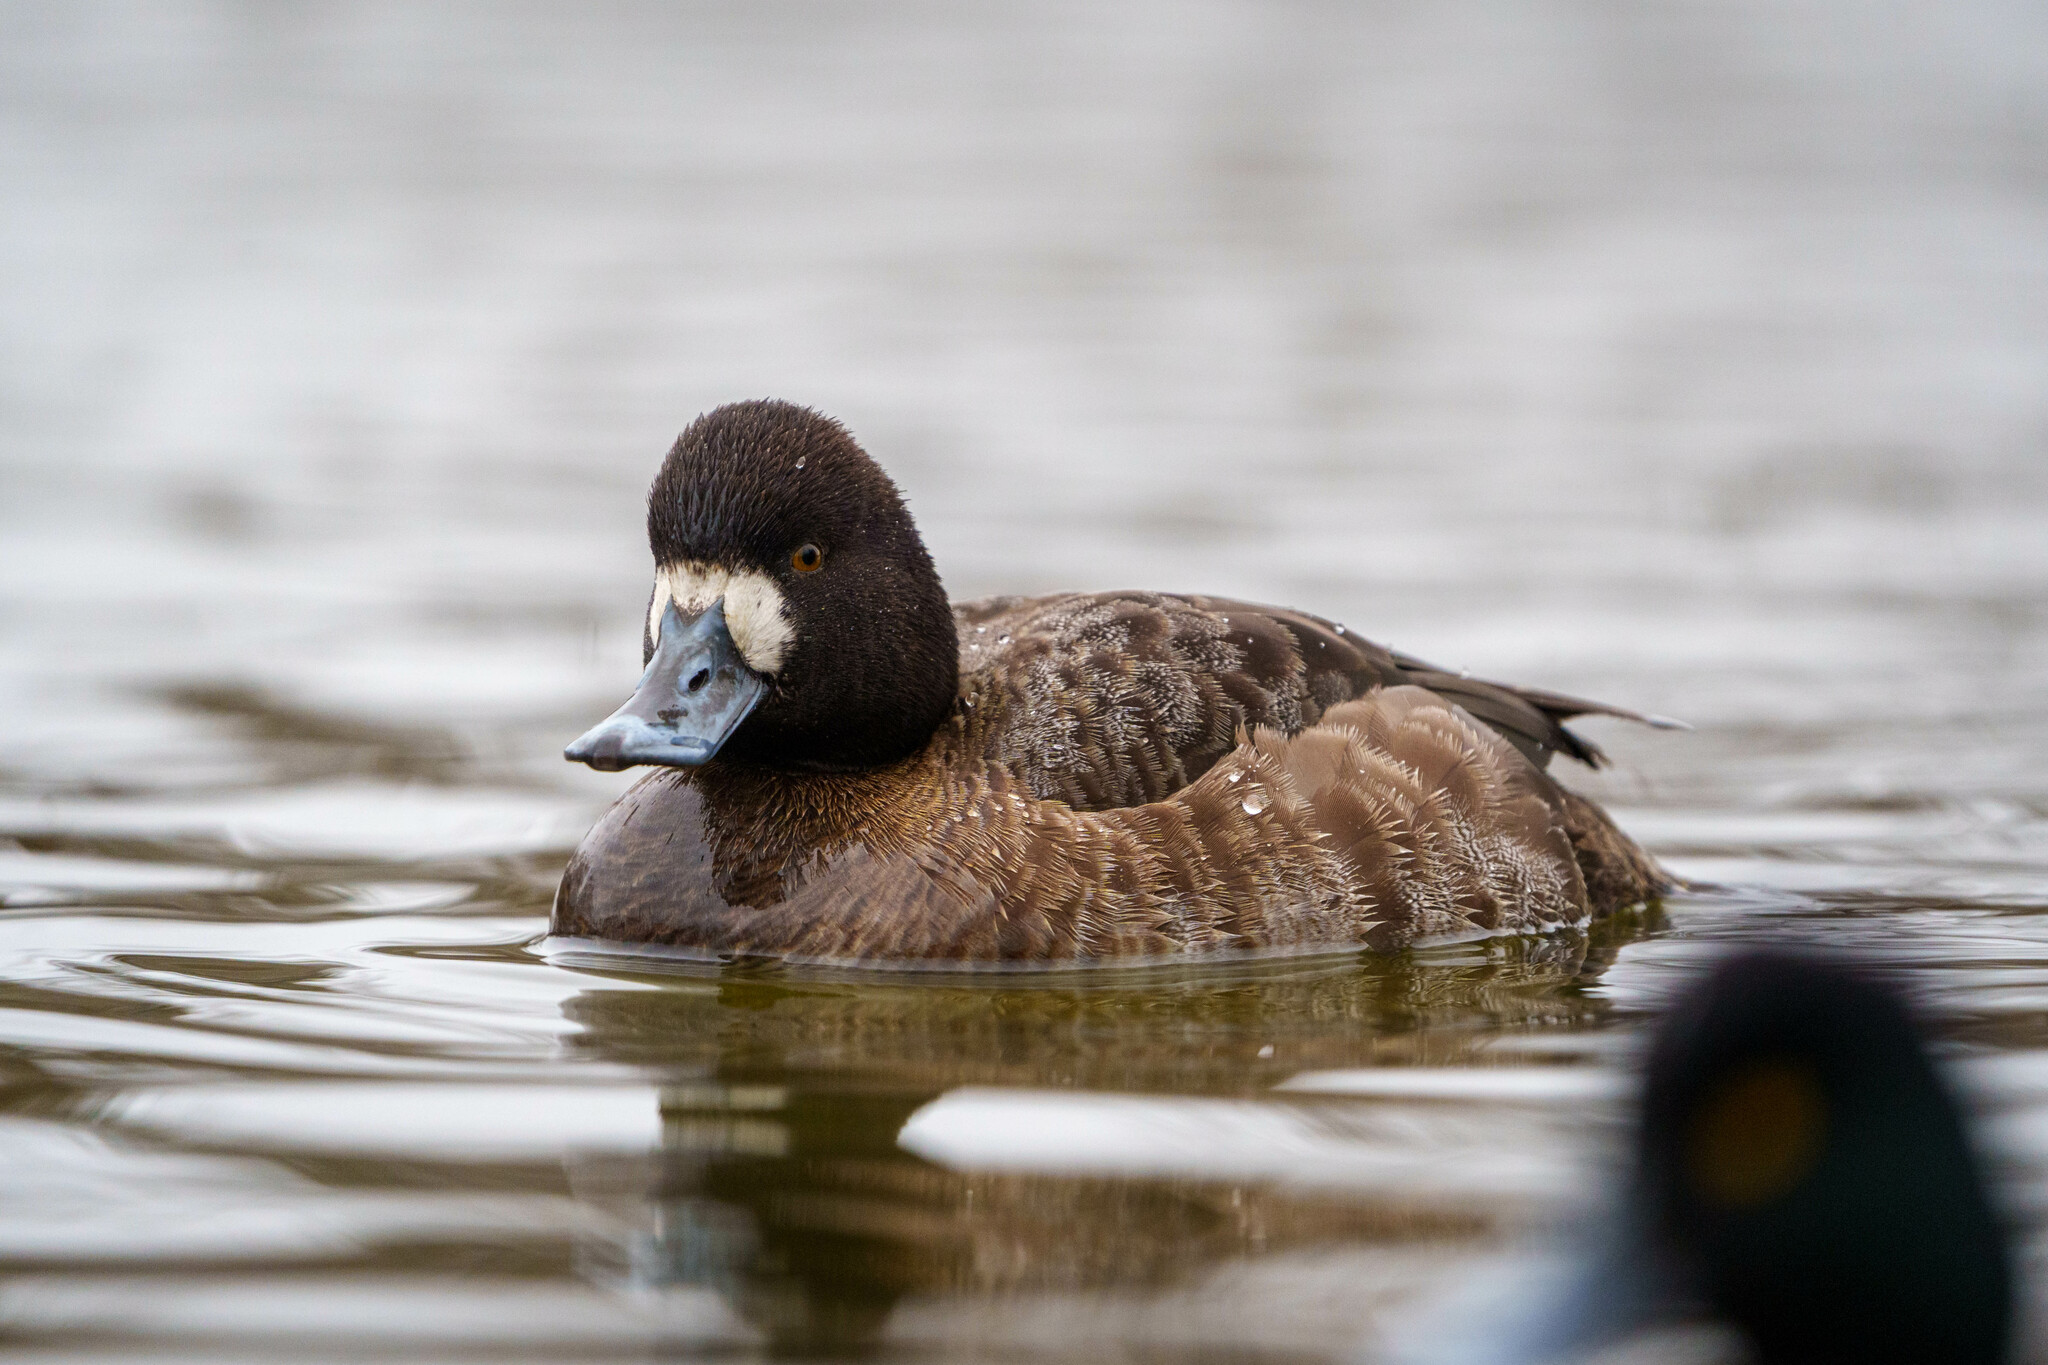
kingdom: Animalia
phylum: Chordata
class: Aves
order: Anseriformes
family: Anatidae
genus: Aythya
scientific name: Aythya affinis
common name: Lesser scaup
